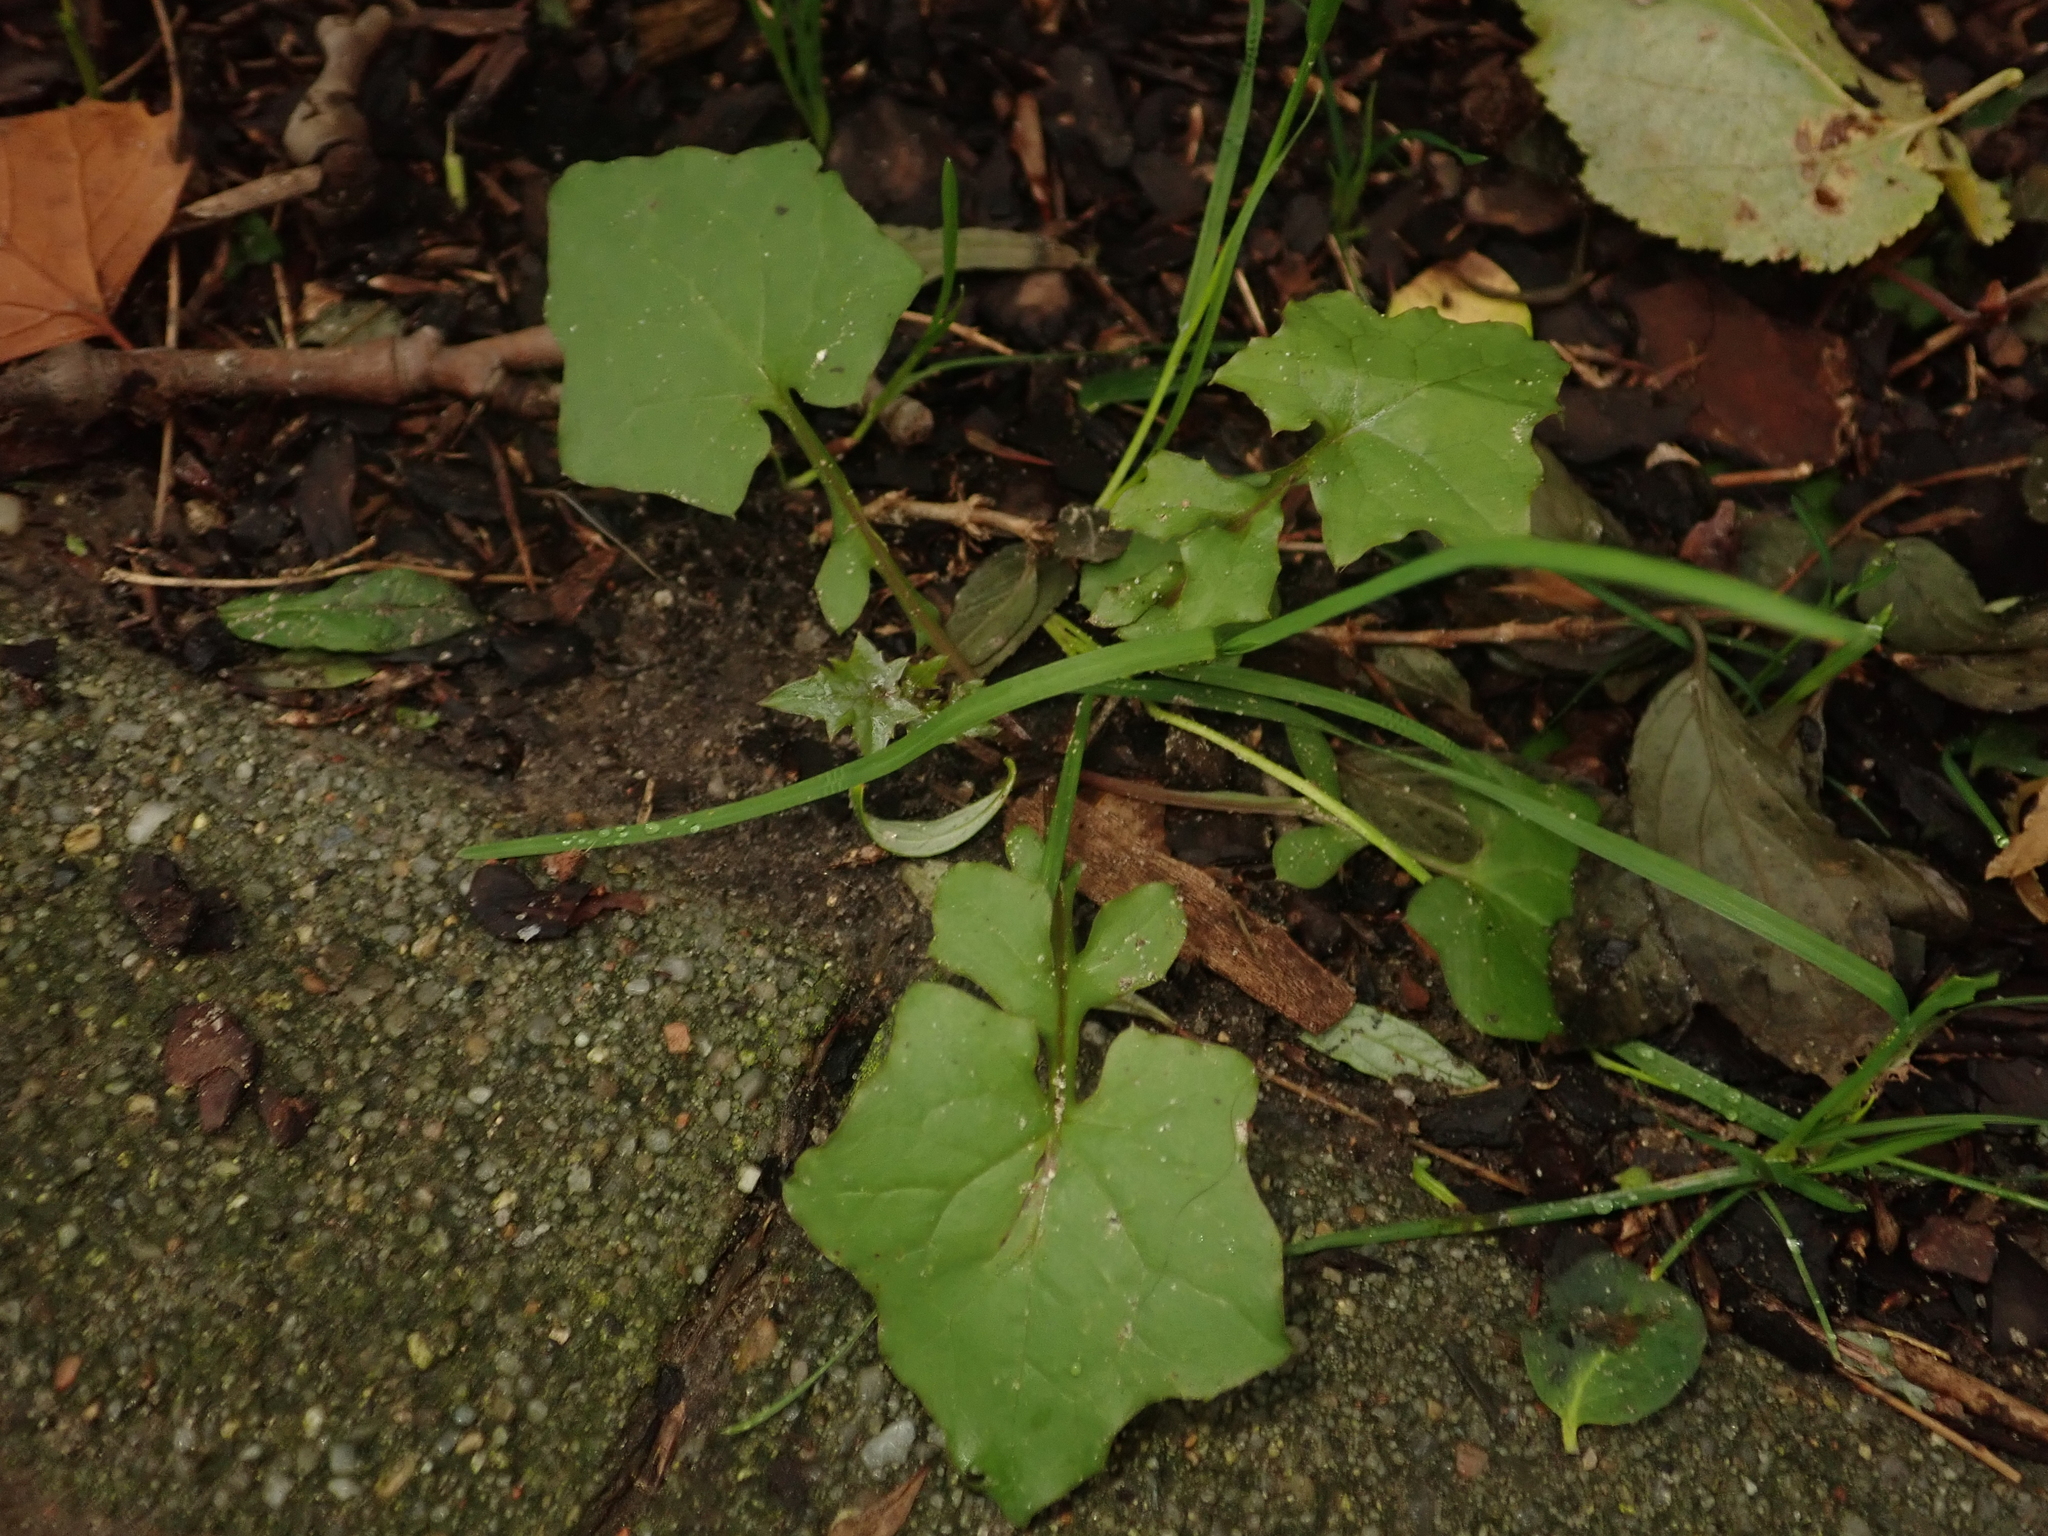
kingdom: Plantae
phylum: Tracheophyta
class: Magnoliopsida
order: Asterales
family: Asteraceae
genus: Mycelis
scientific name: Mycelis muralis
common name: Wall lettuce
